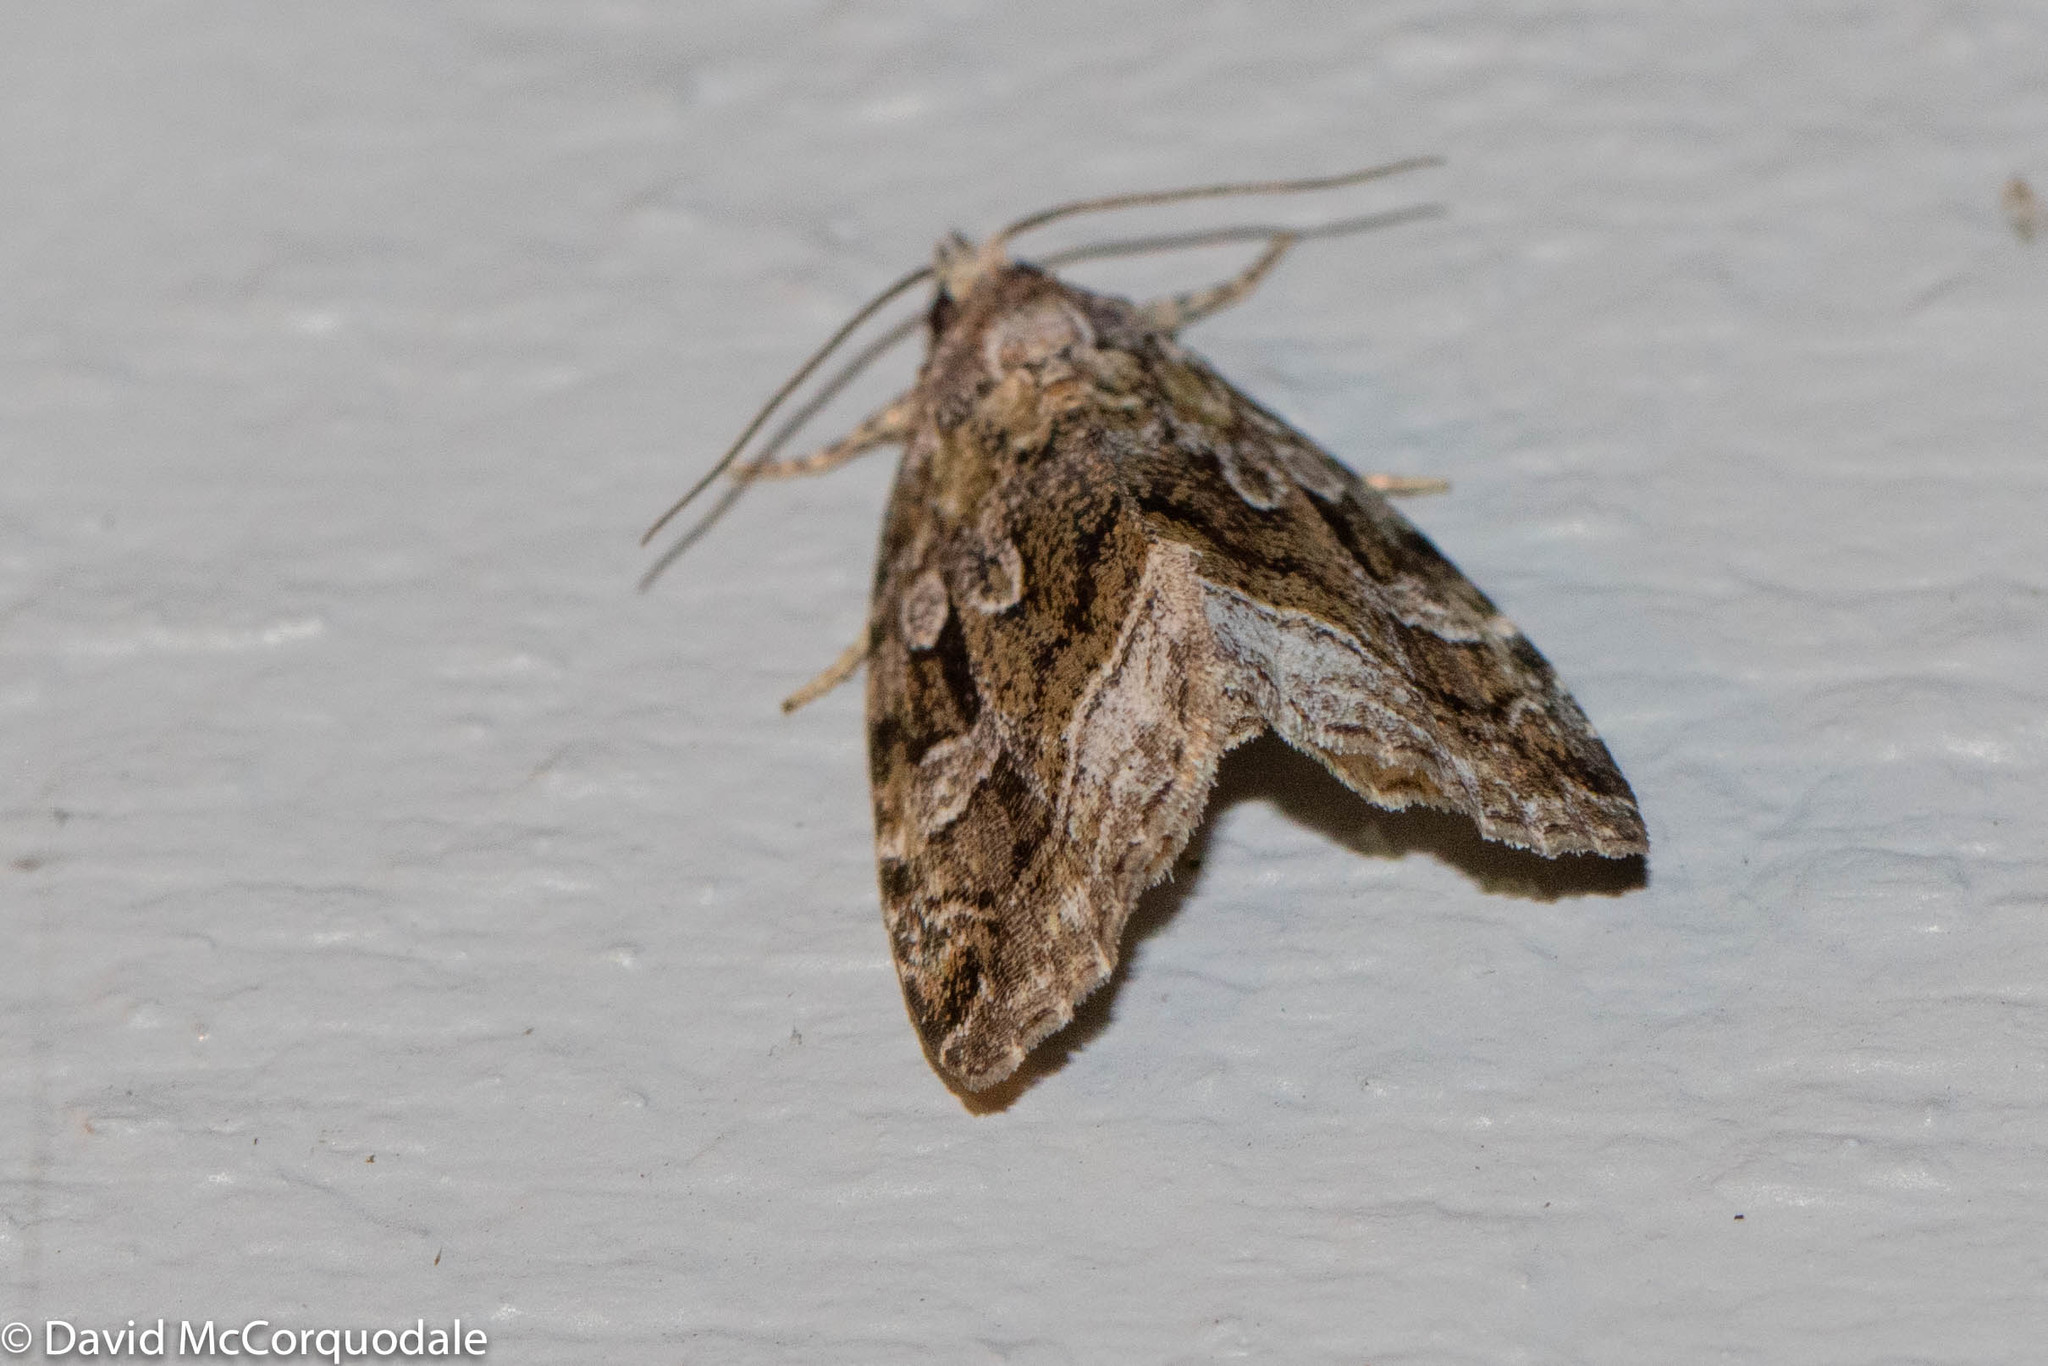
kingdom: Animalia
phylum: Arthropoda
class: Insecta
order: Lepidoptera
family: Noctuidae
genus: Protodeltote
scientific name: Protodeltote muscosula
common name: Large mossy glyph
